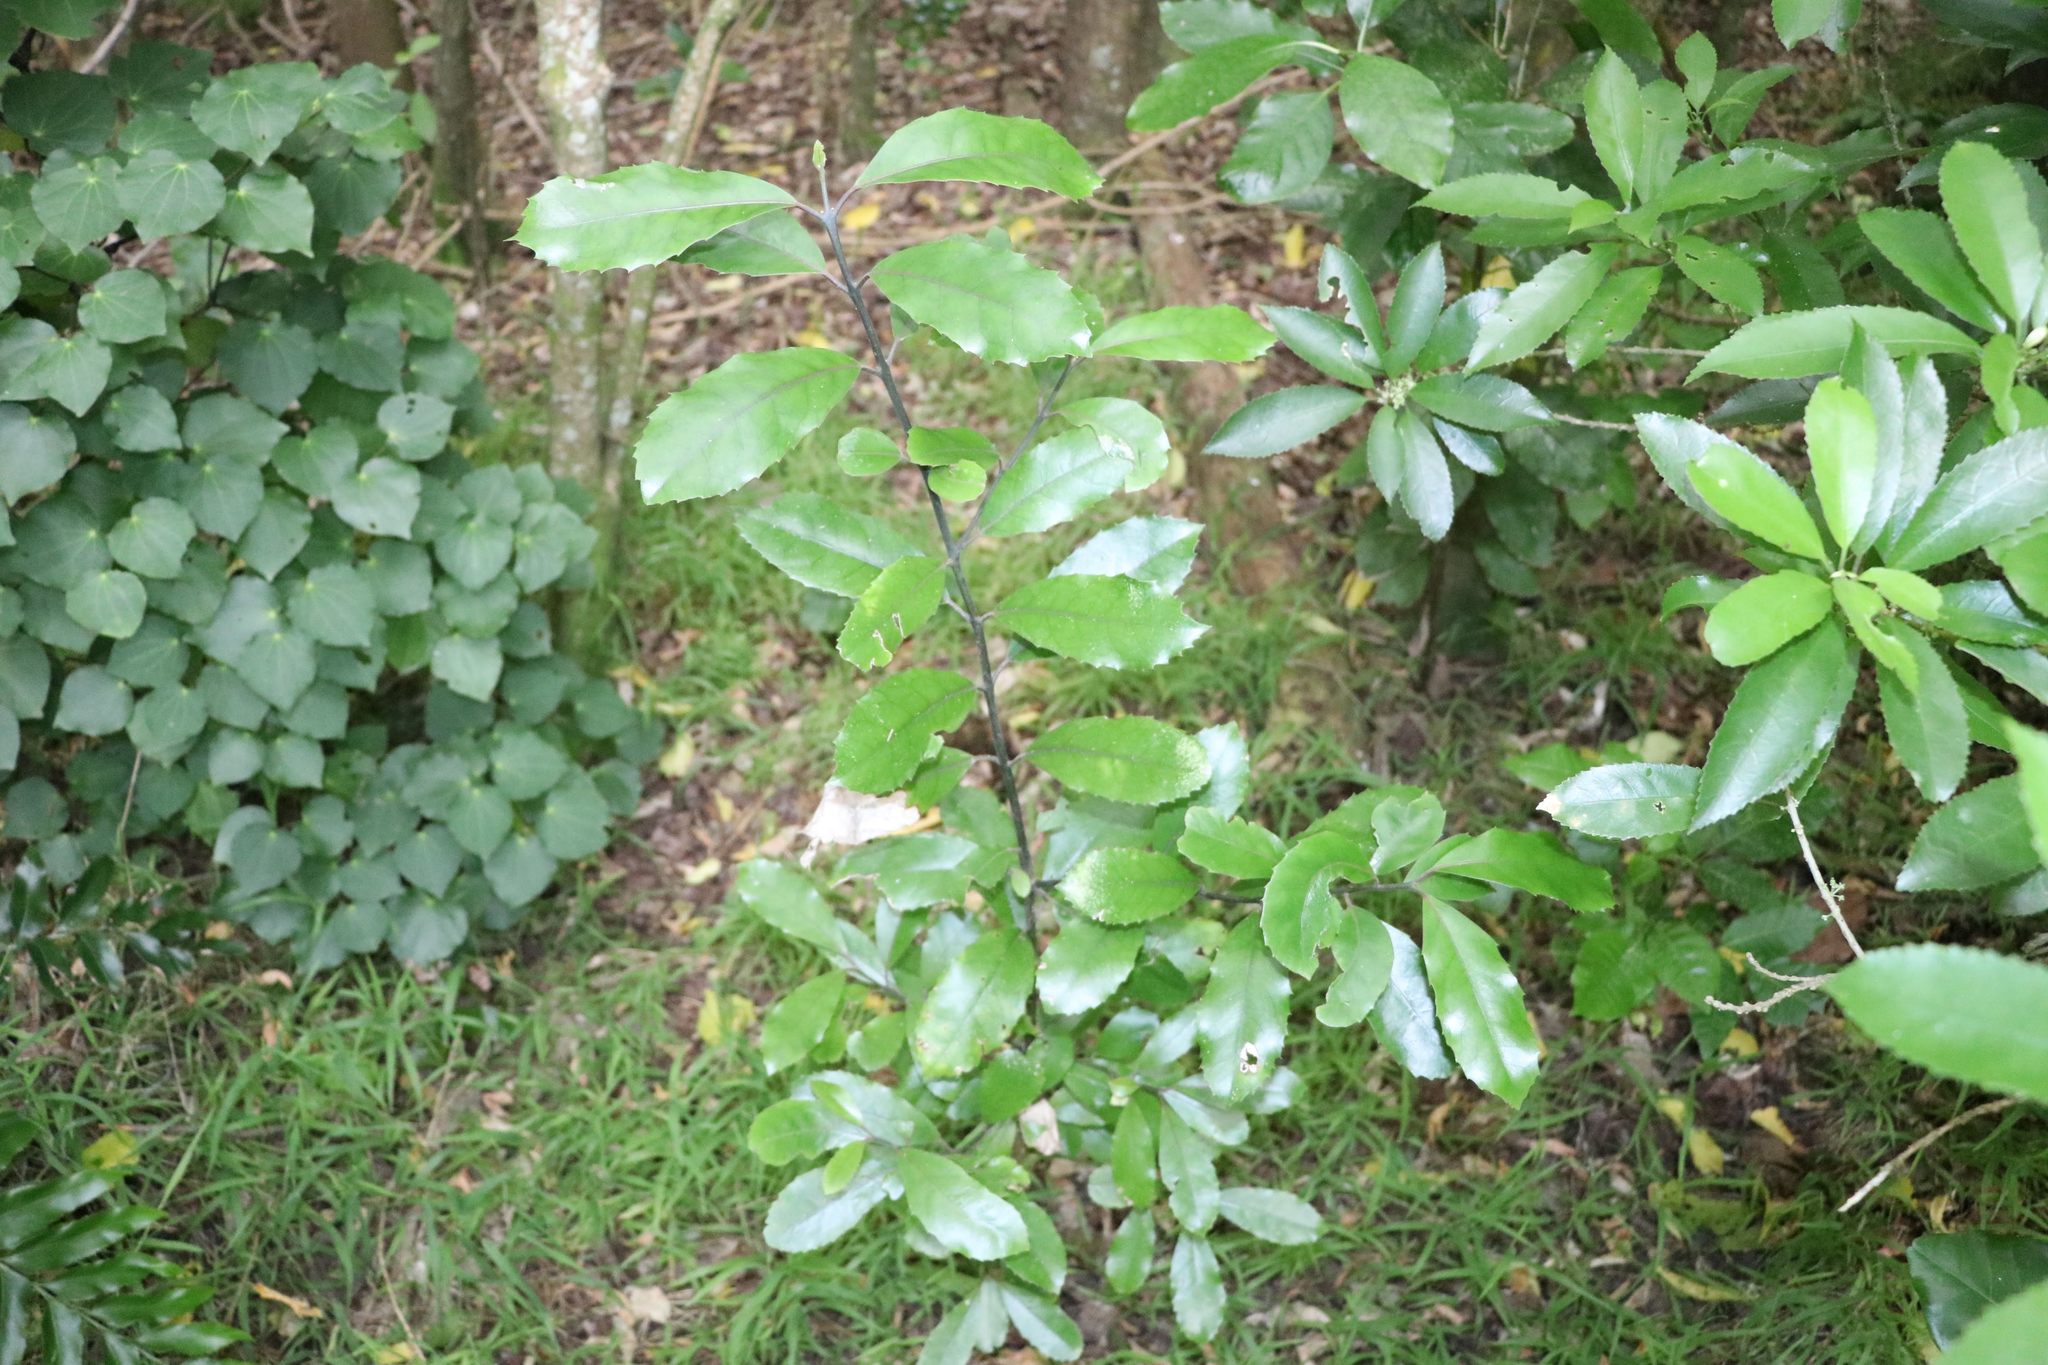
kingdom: Plantae
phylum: Tracheophyta
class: Magnoliopsida
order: Laurales
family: Monimiaceae
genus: Hedycarya
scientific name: Hedycarya arborea
